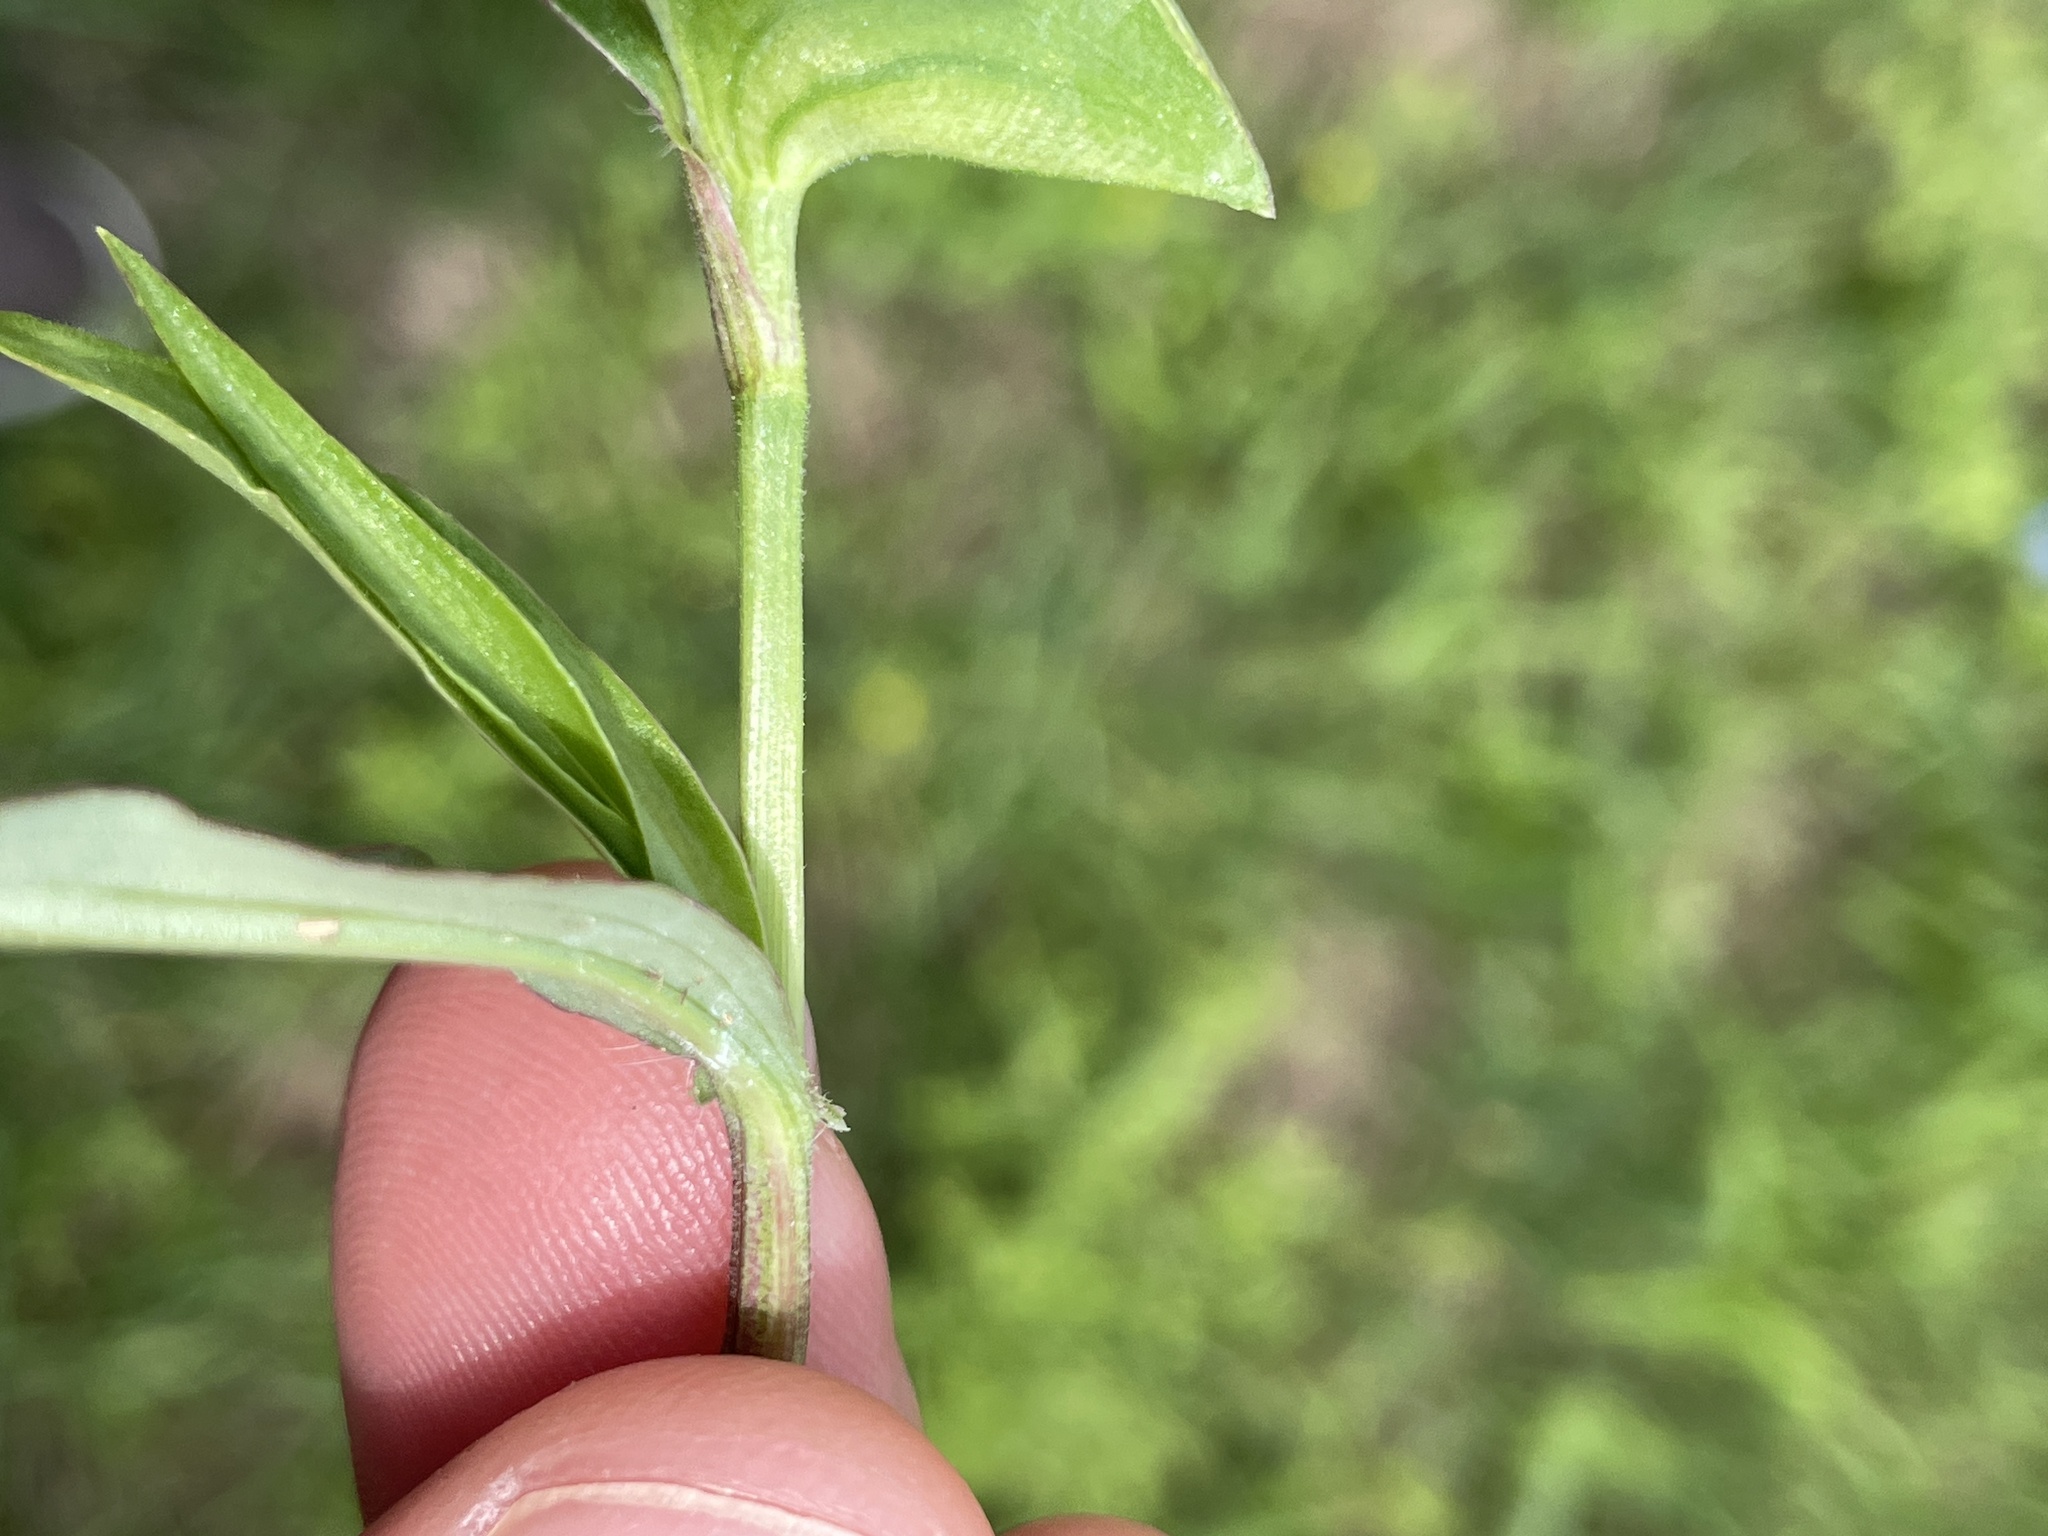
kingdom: Plantae
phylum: Tracheophyta
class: Liliopsida
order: Commelinales
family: Commelinaceae
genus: Commelina
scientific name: Commelina erecta
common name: Blousel blommetjie
